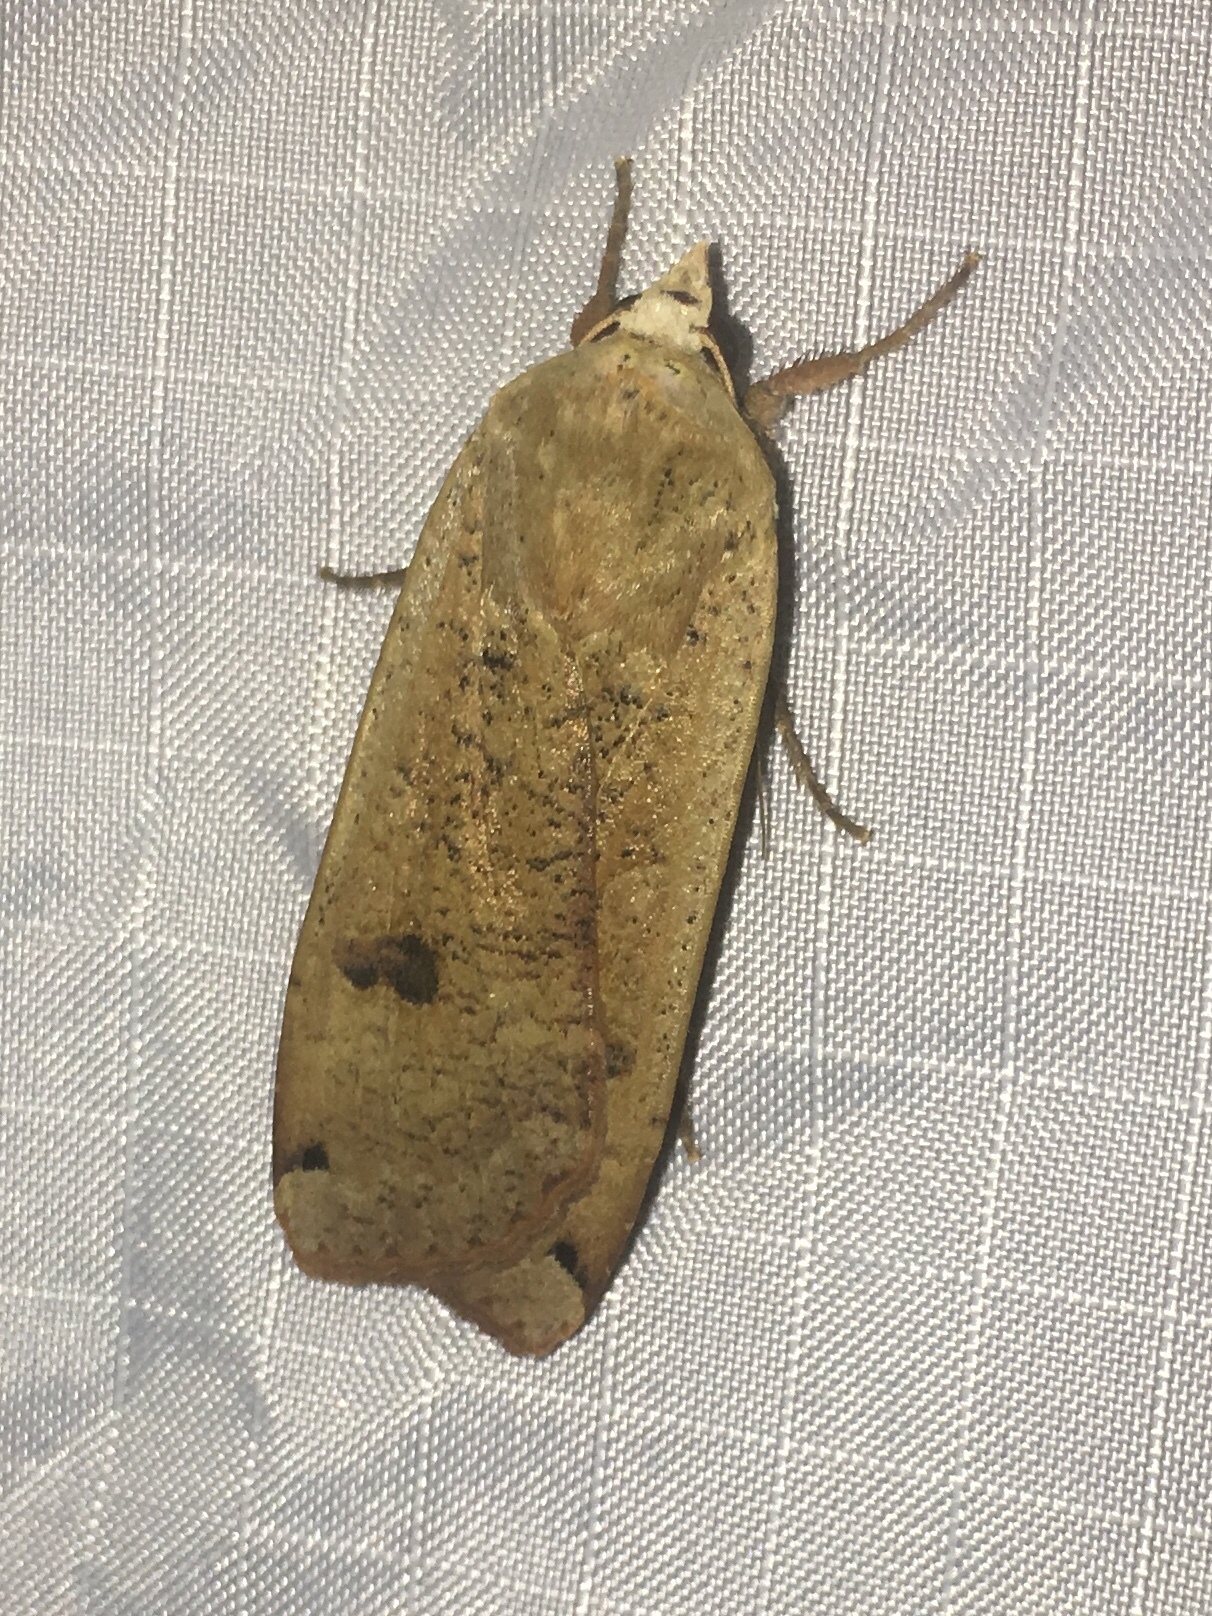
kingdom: Animalia
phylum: Arthropoda
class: Insecta
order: Lepidoptera
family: Noctuidae
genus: Noctua
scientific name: Noctua pronuba
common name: Large yellow underwing
